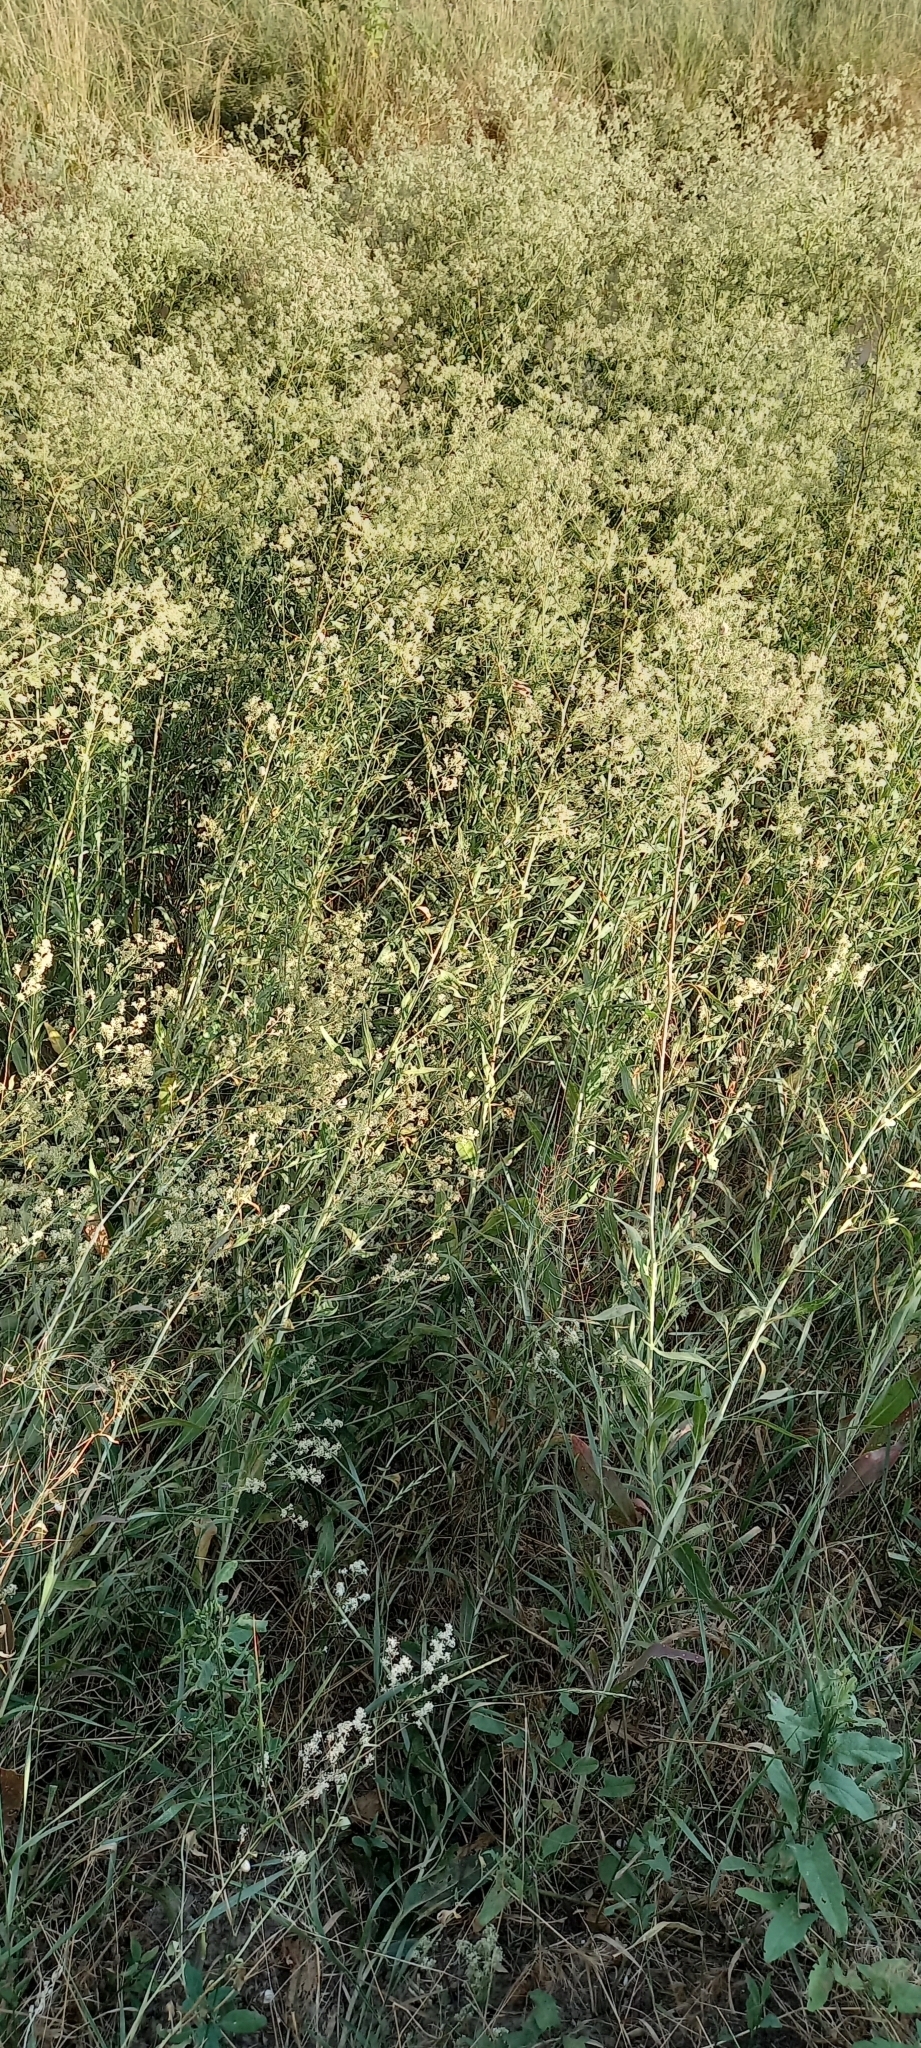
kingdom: Plantae
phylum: Tracheophyta
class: Magnoliopsida
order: Brassicales
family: Brassicaceae
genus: Lepidium
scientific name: Lepidium latifolium
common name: Dittander
